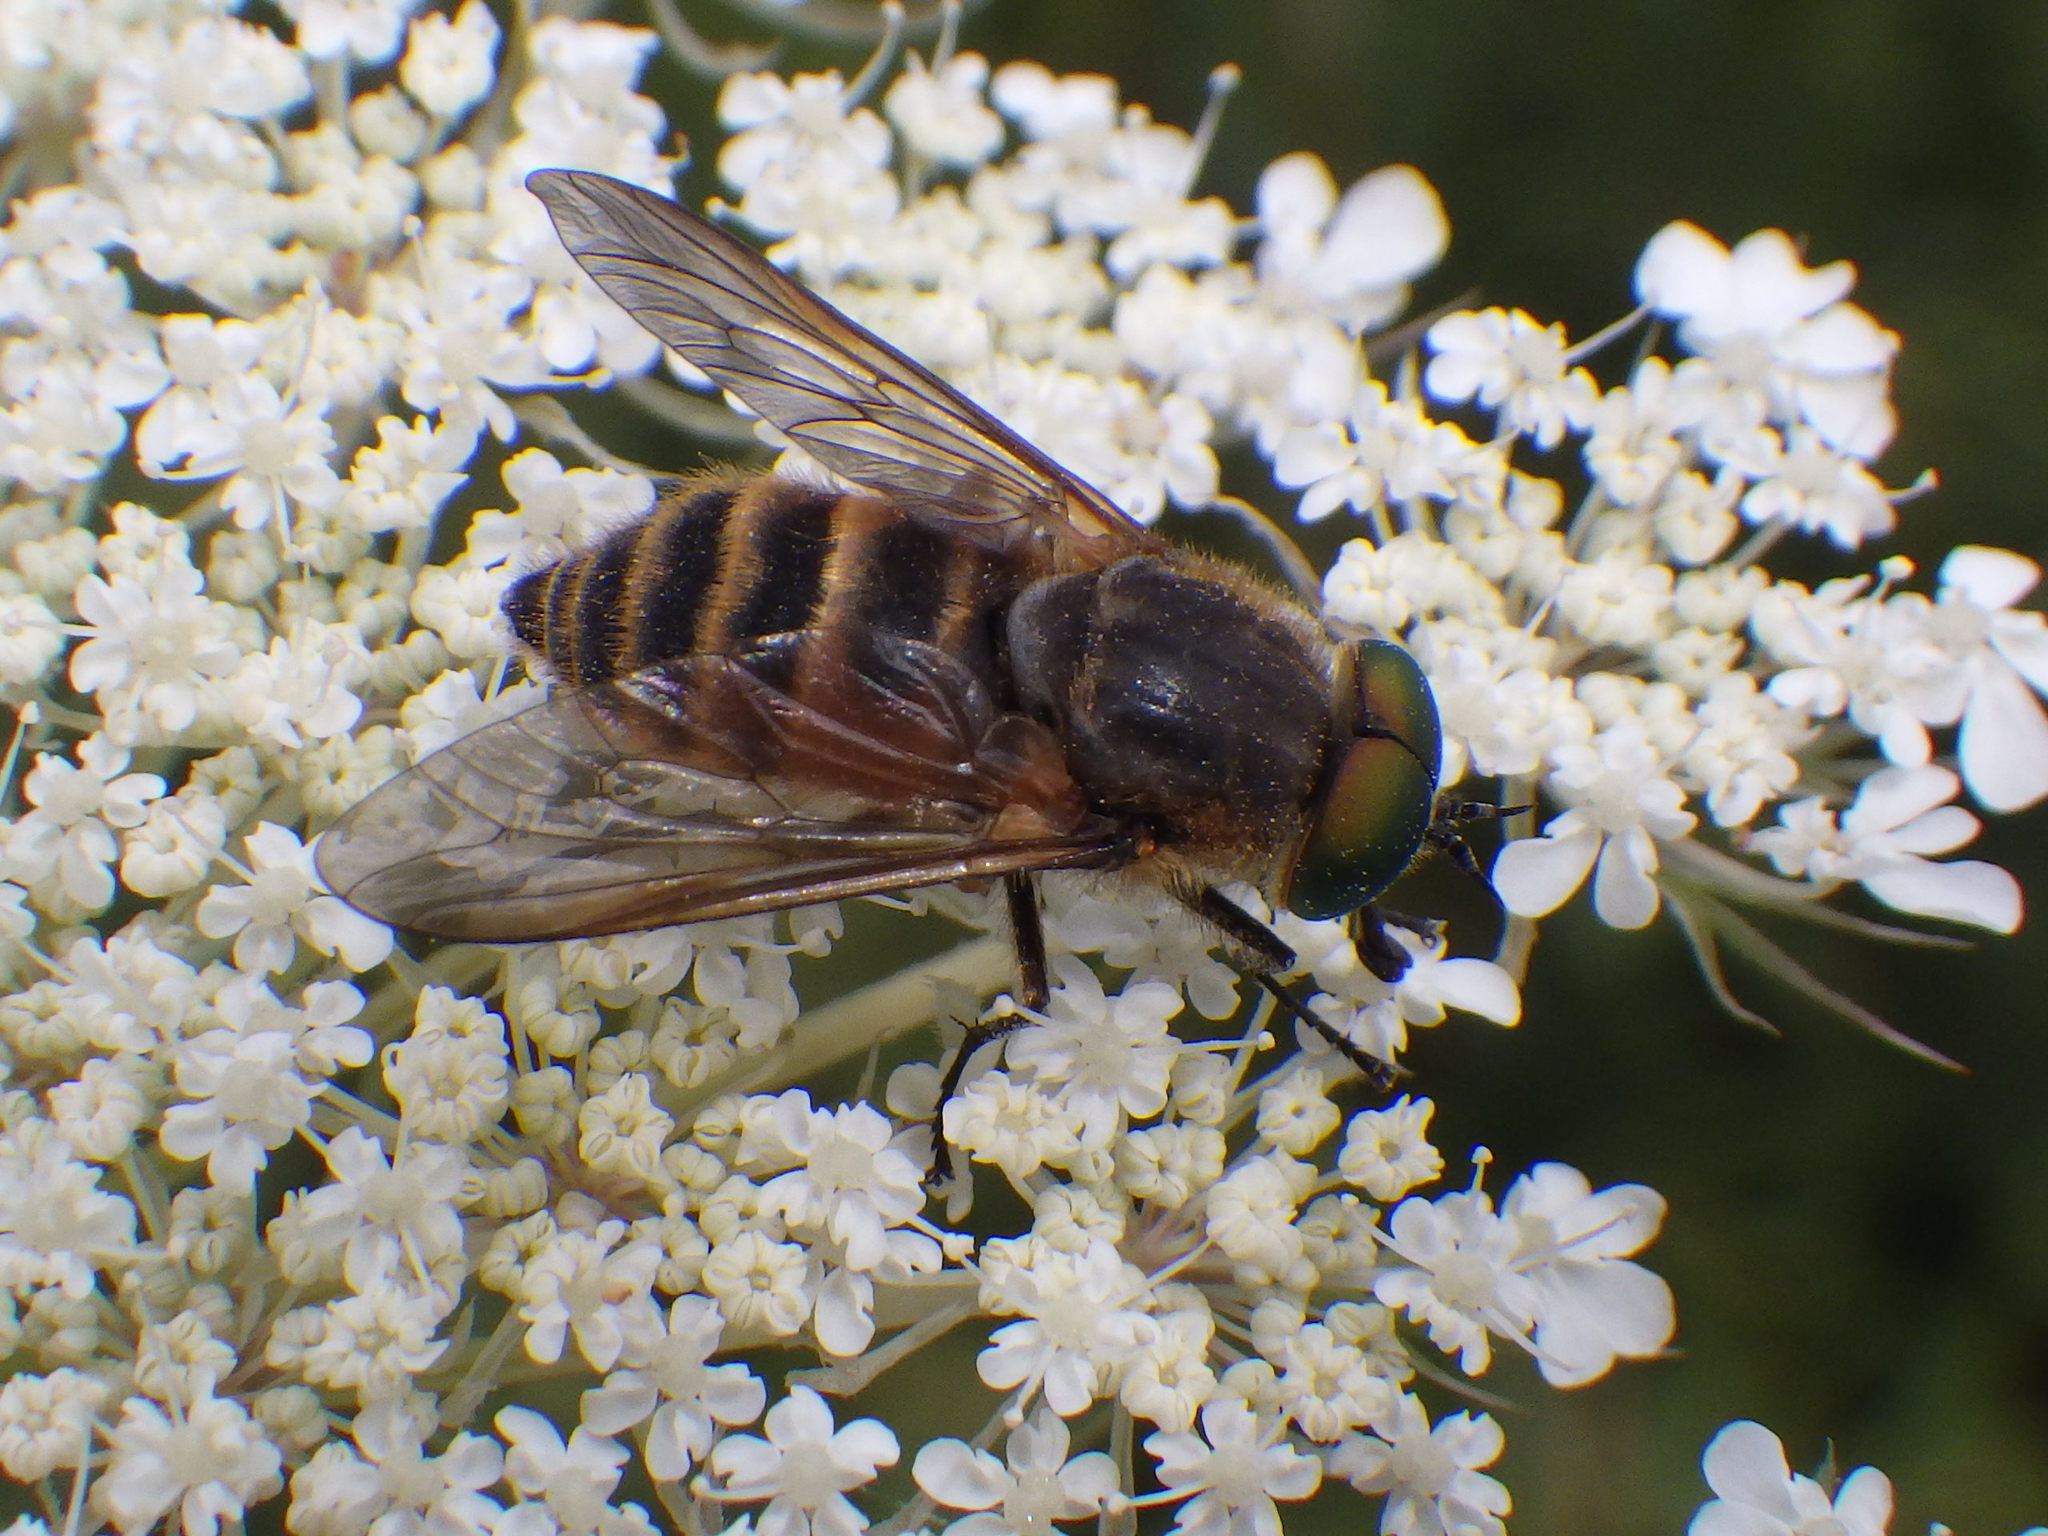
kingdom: Animalia
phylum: Arthropoda
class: Insecta
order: Diptera
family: Tabanidae
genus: Stonemyia
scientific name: Stonemyia tranquilla
